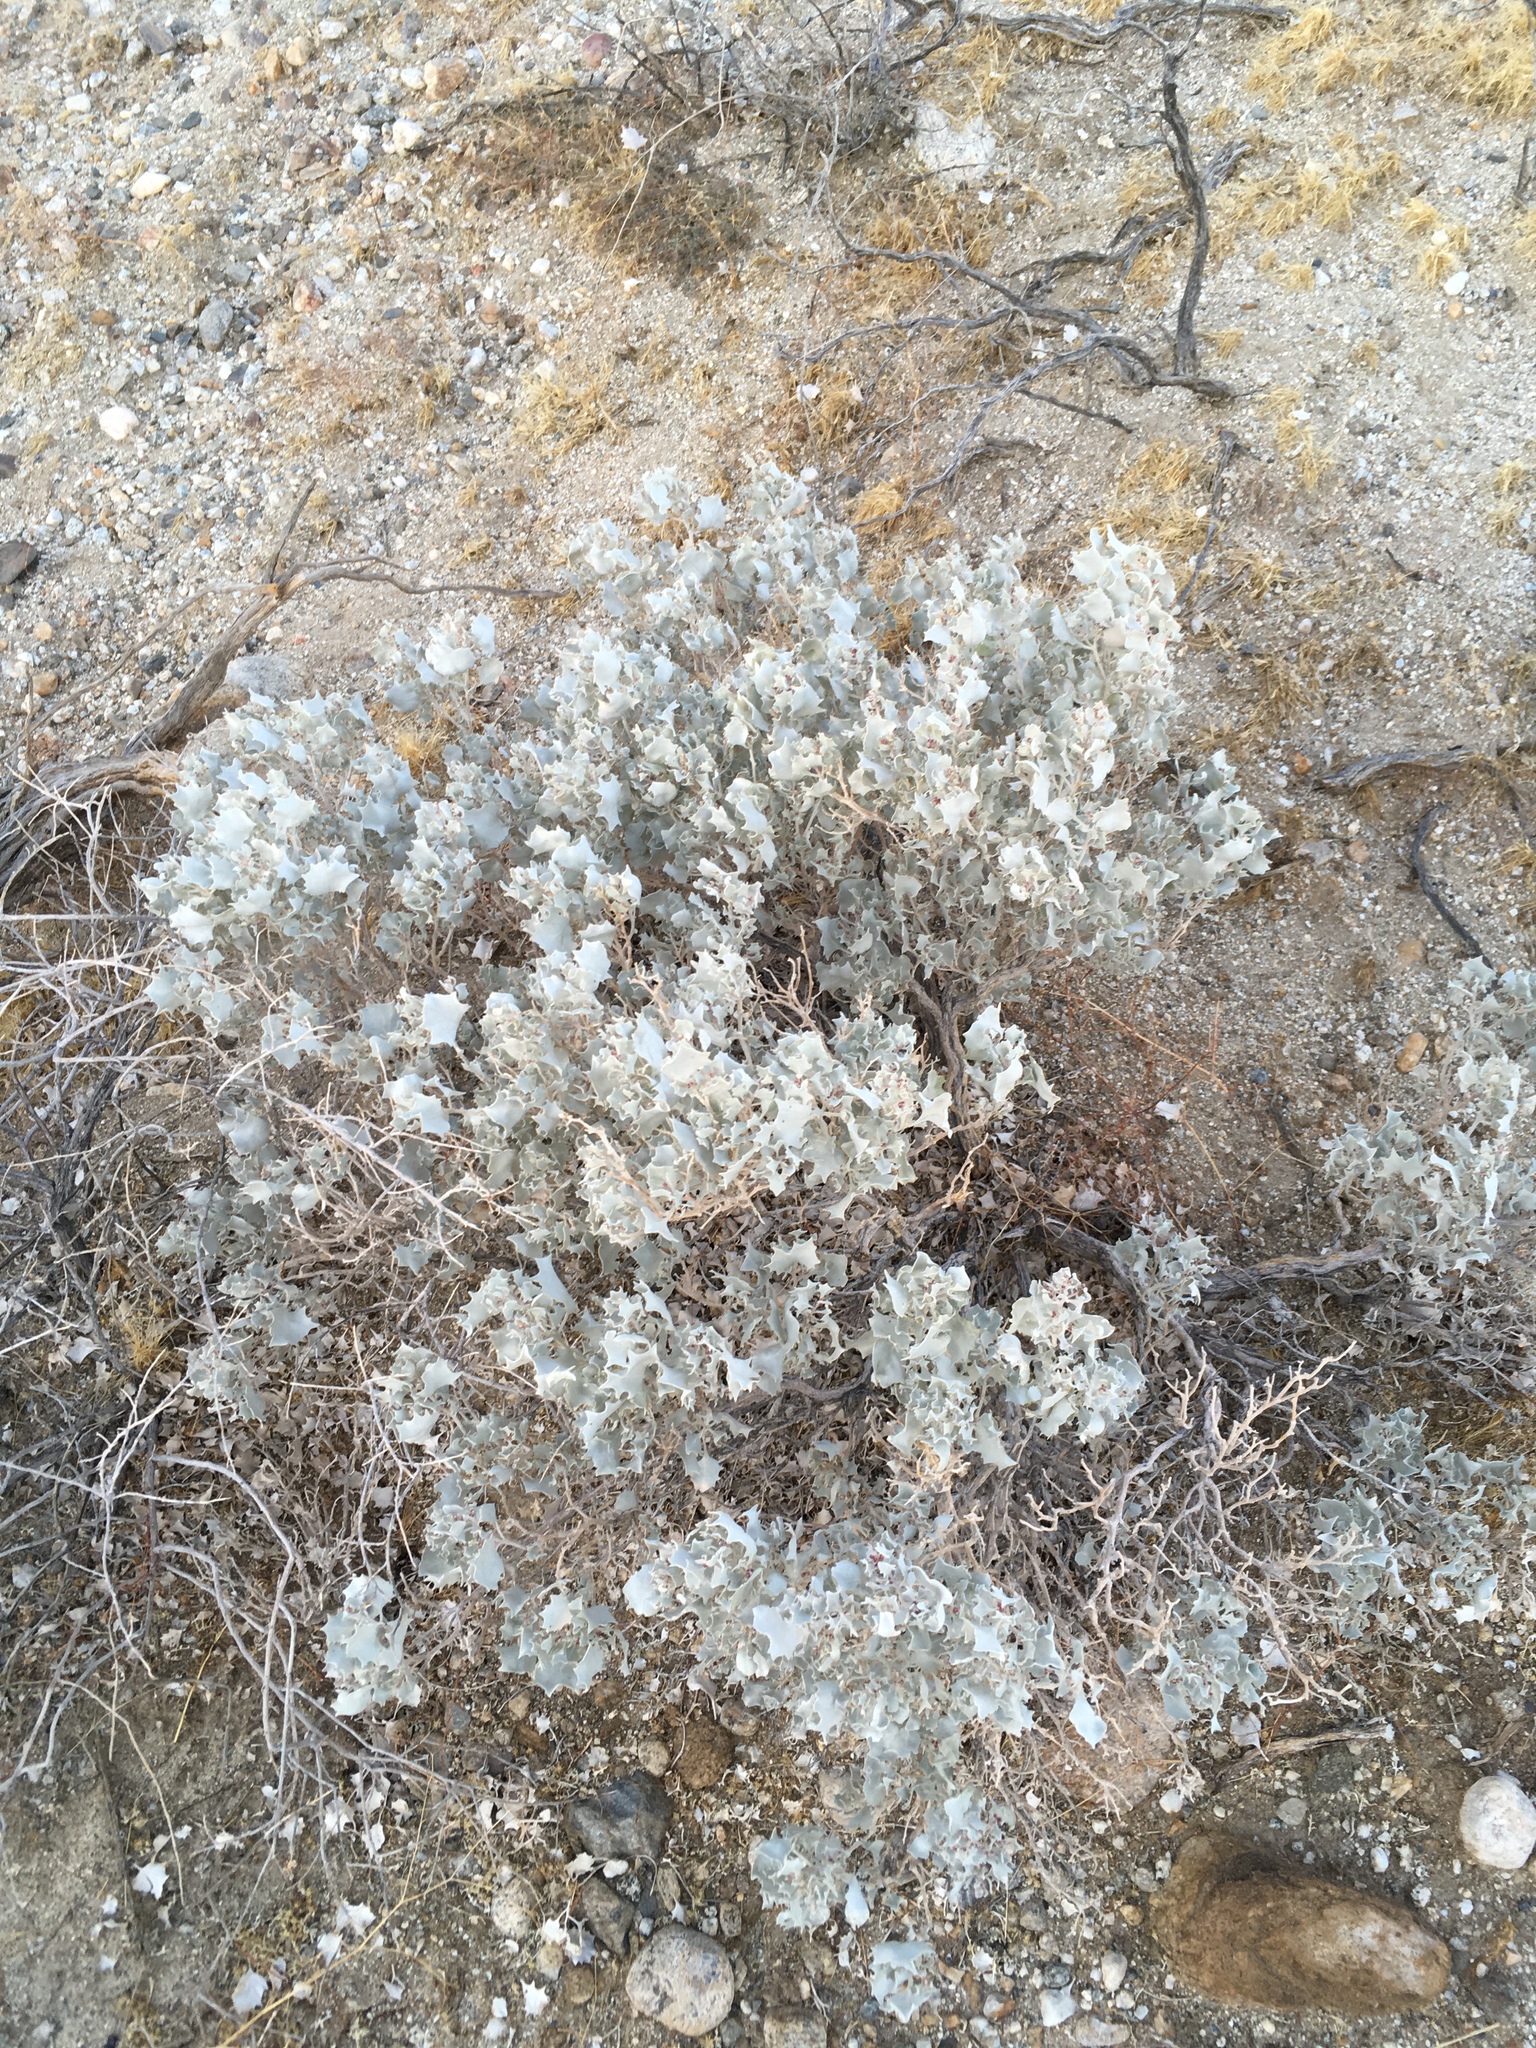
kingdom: Plantae
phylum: Tracheophyta
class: Magnoliopsida
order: Caryophyllales
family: Amaranthaceae
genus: Atriplex
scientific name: Atriplex hymenelytra
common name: Desert-holly
